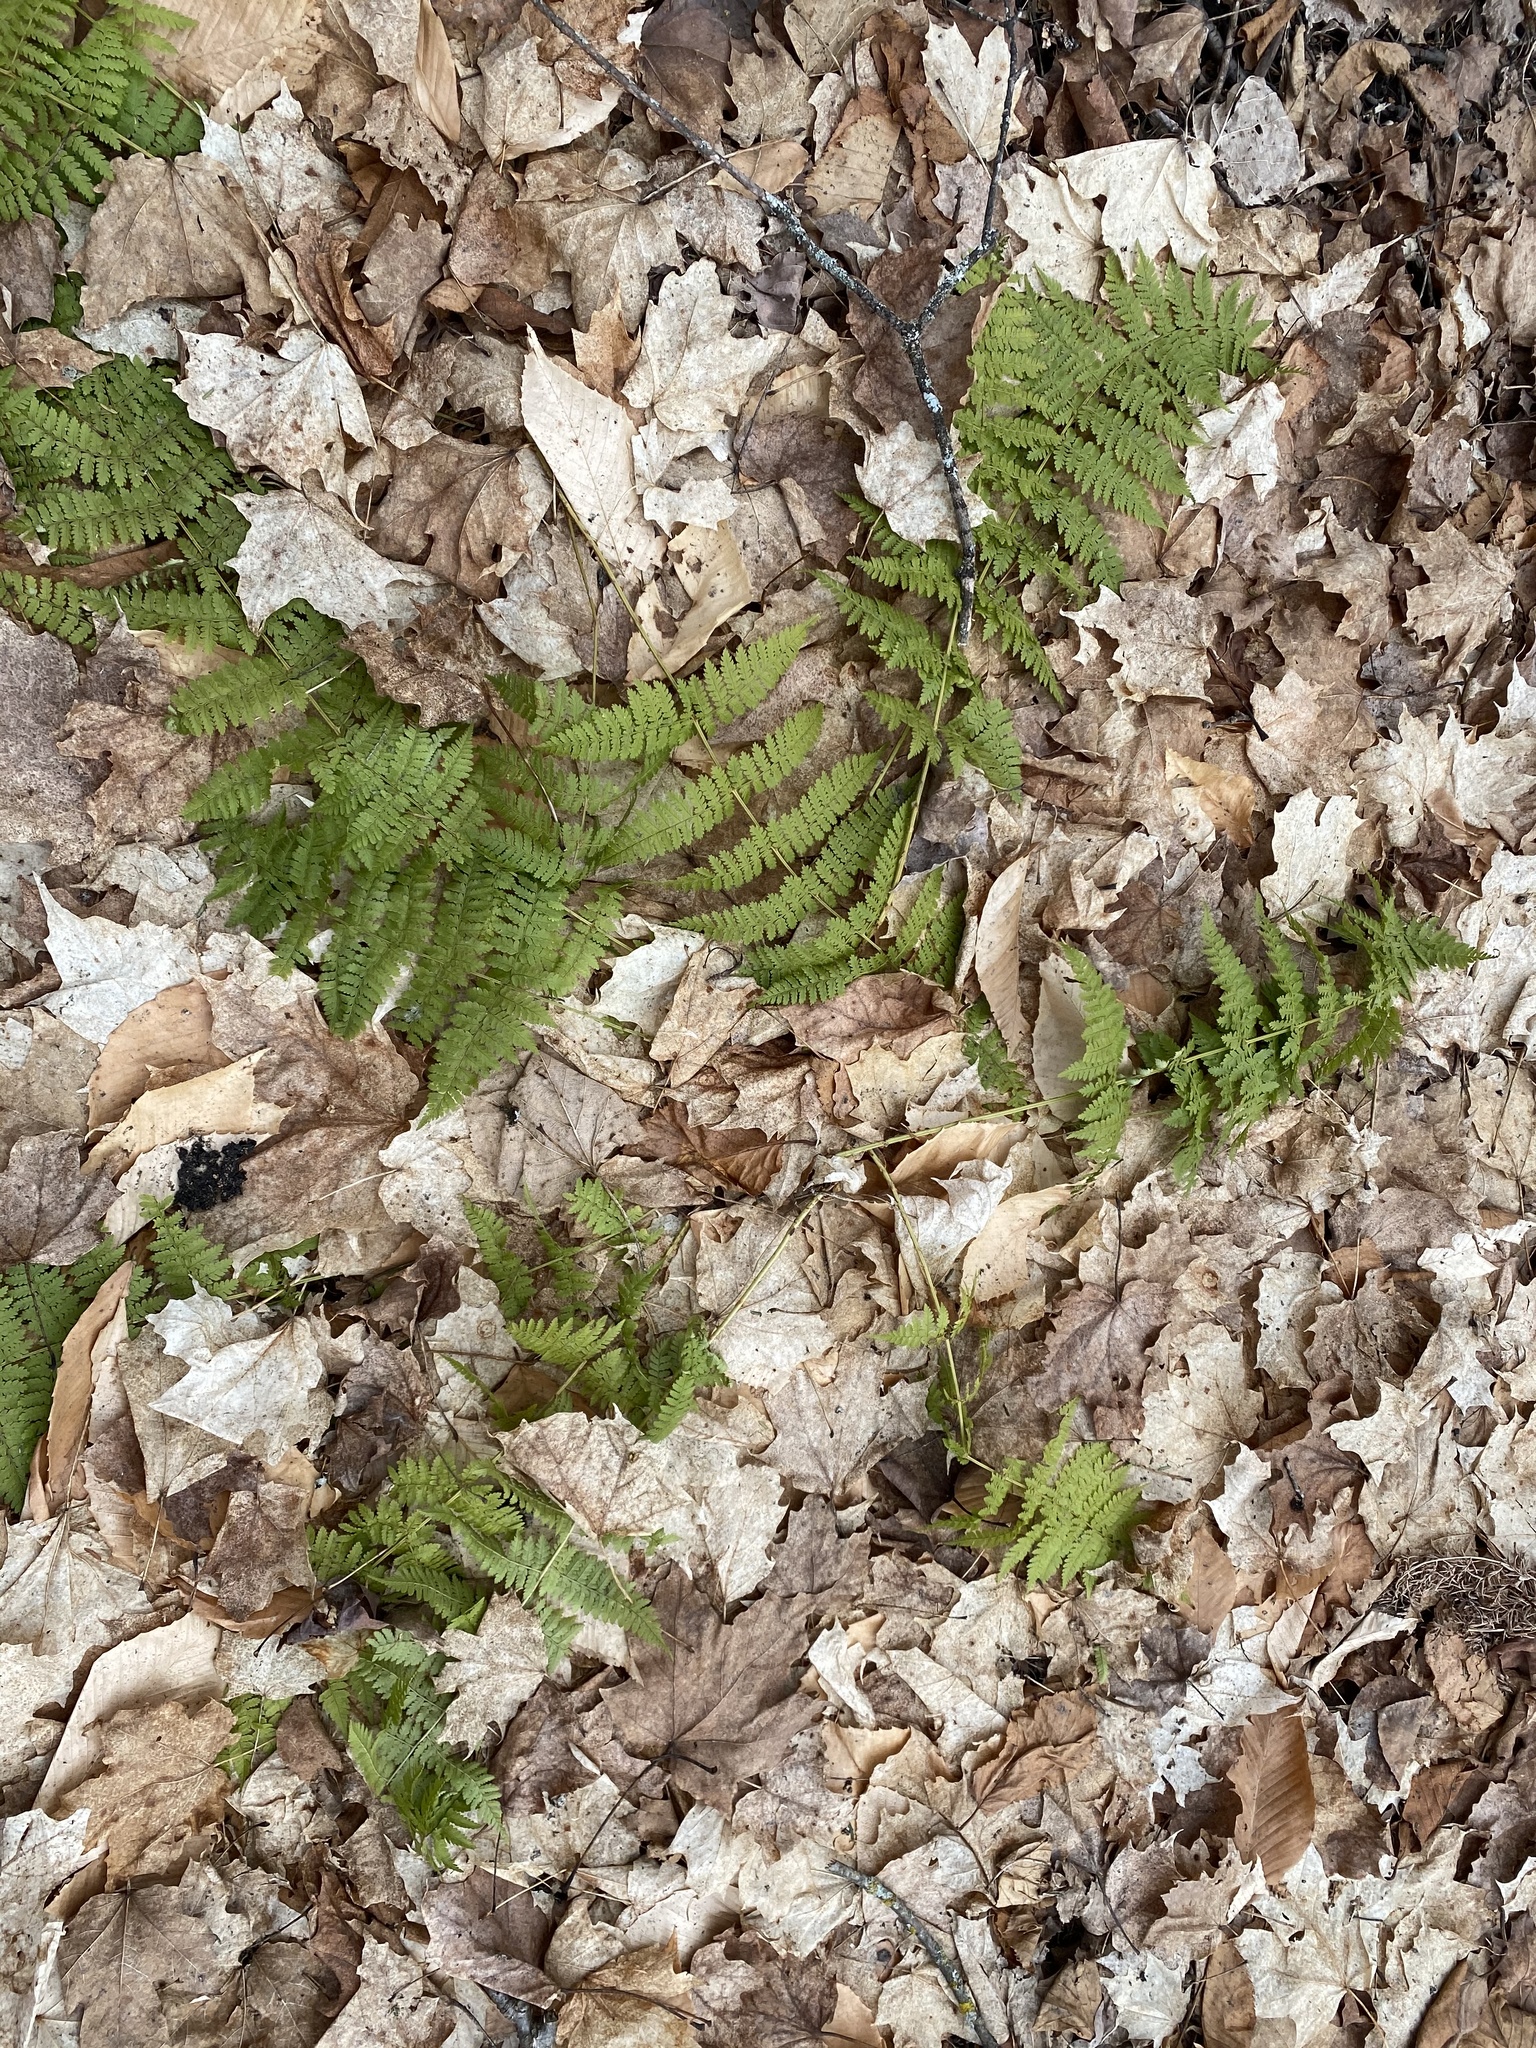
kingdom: Plantae
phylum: Tracheophyta
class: Polypodiopsida
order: Polypodiales
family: Dryopteridaceae
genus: Dryopteris
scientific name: Dryopteris intermedia
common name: Evergreen wood fern
